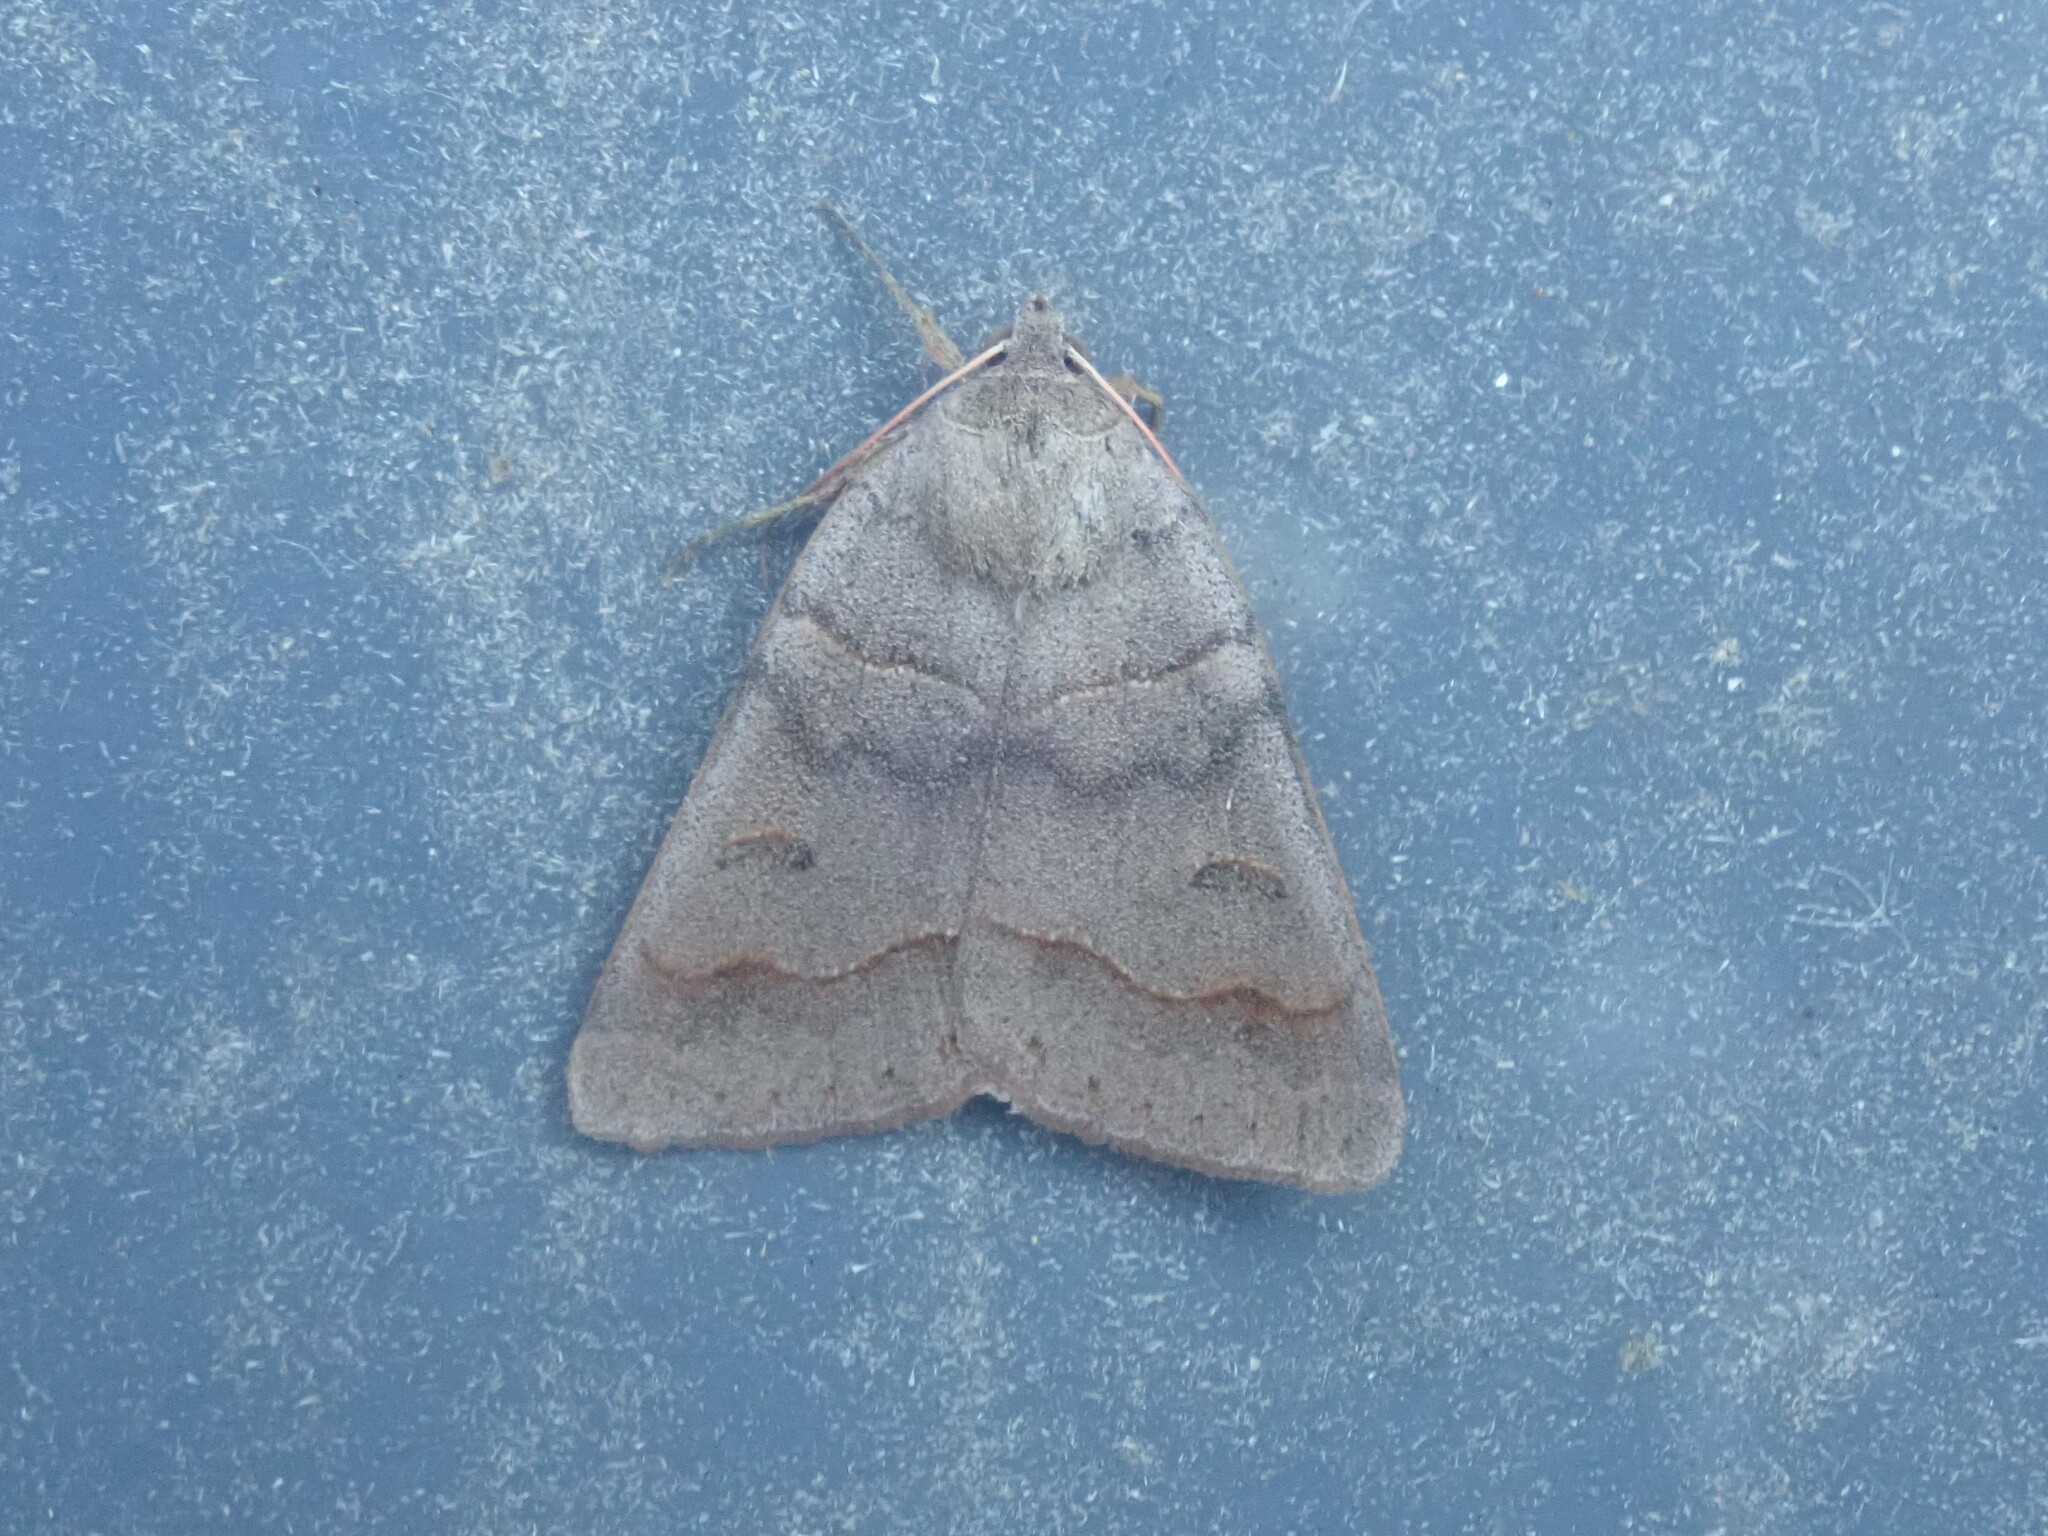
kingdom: Animalia
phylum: Arthropoda
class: Insecta
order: Lepidoptera
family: Erebidae
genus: Phoberia
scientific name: Phoberia atomaris
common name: Common oak moth
